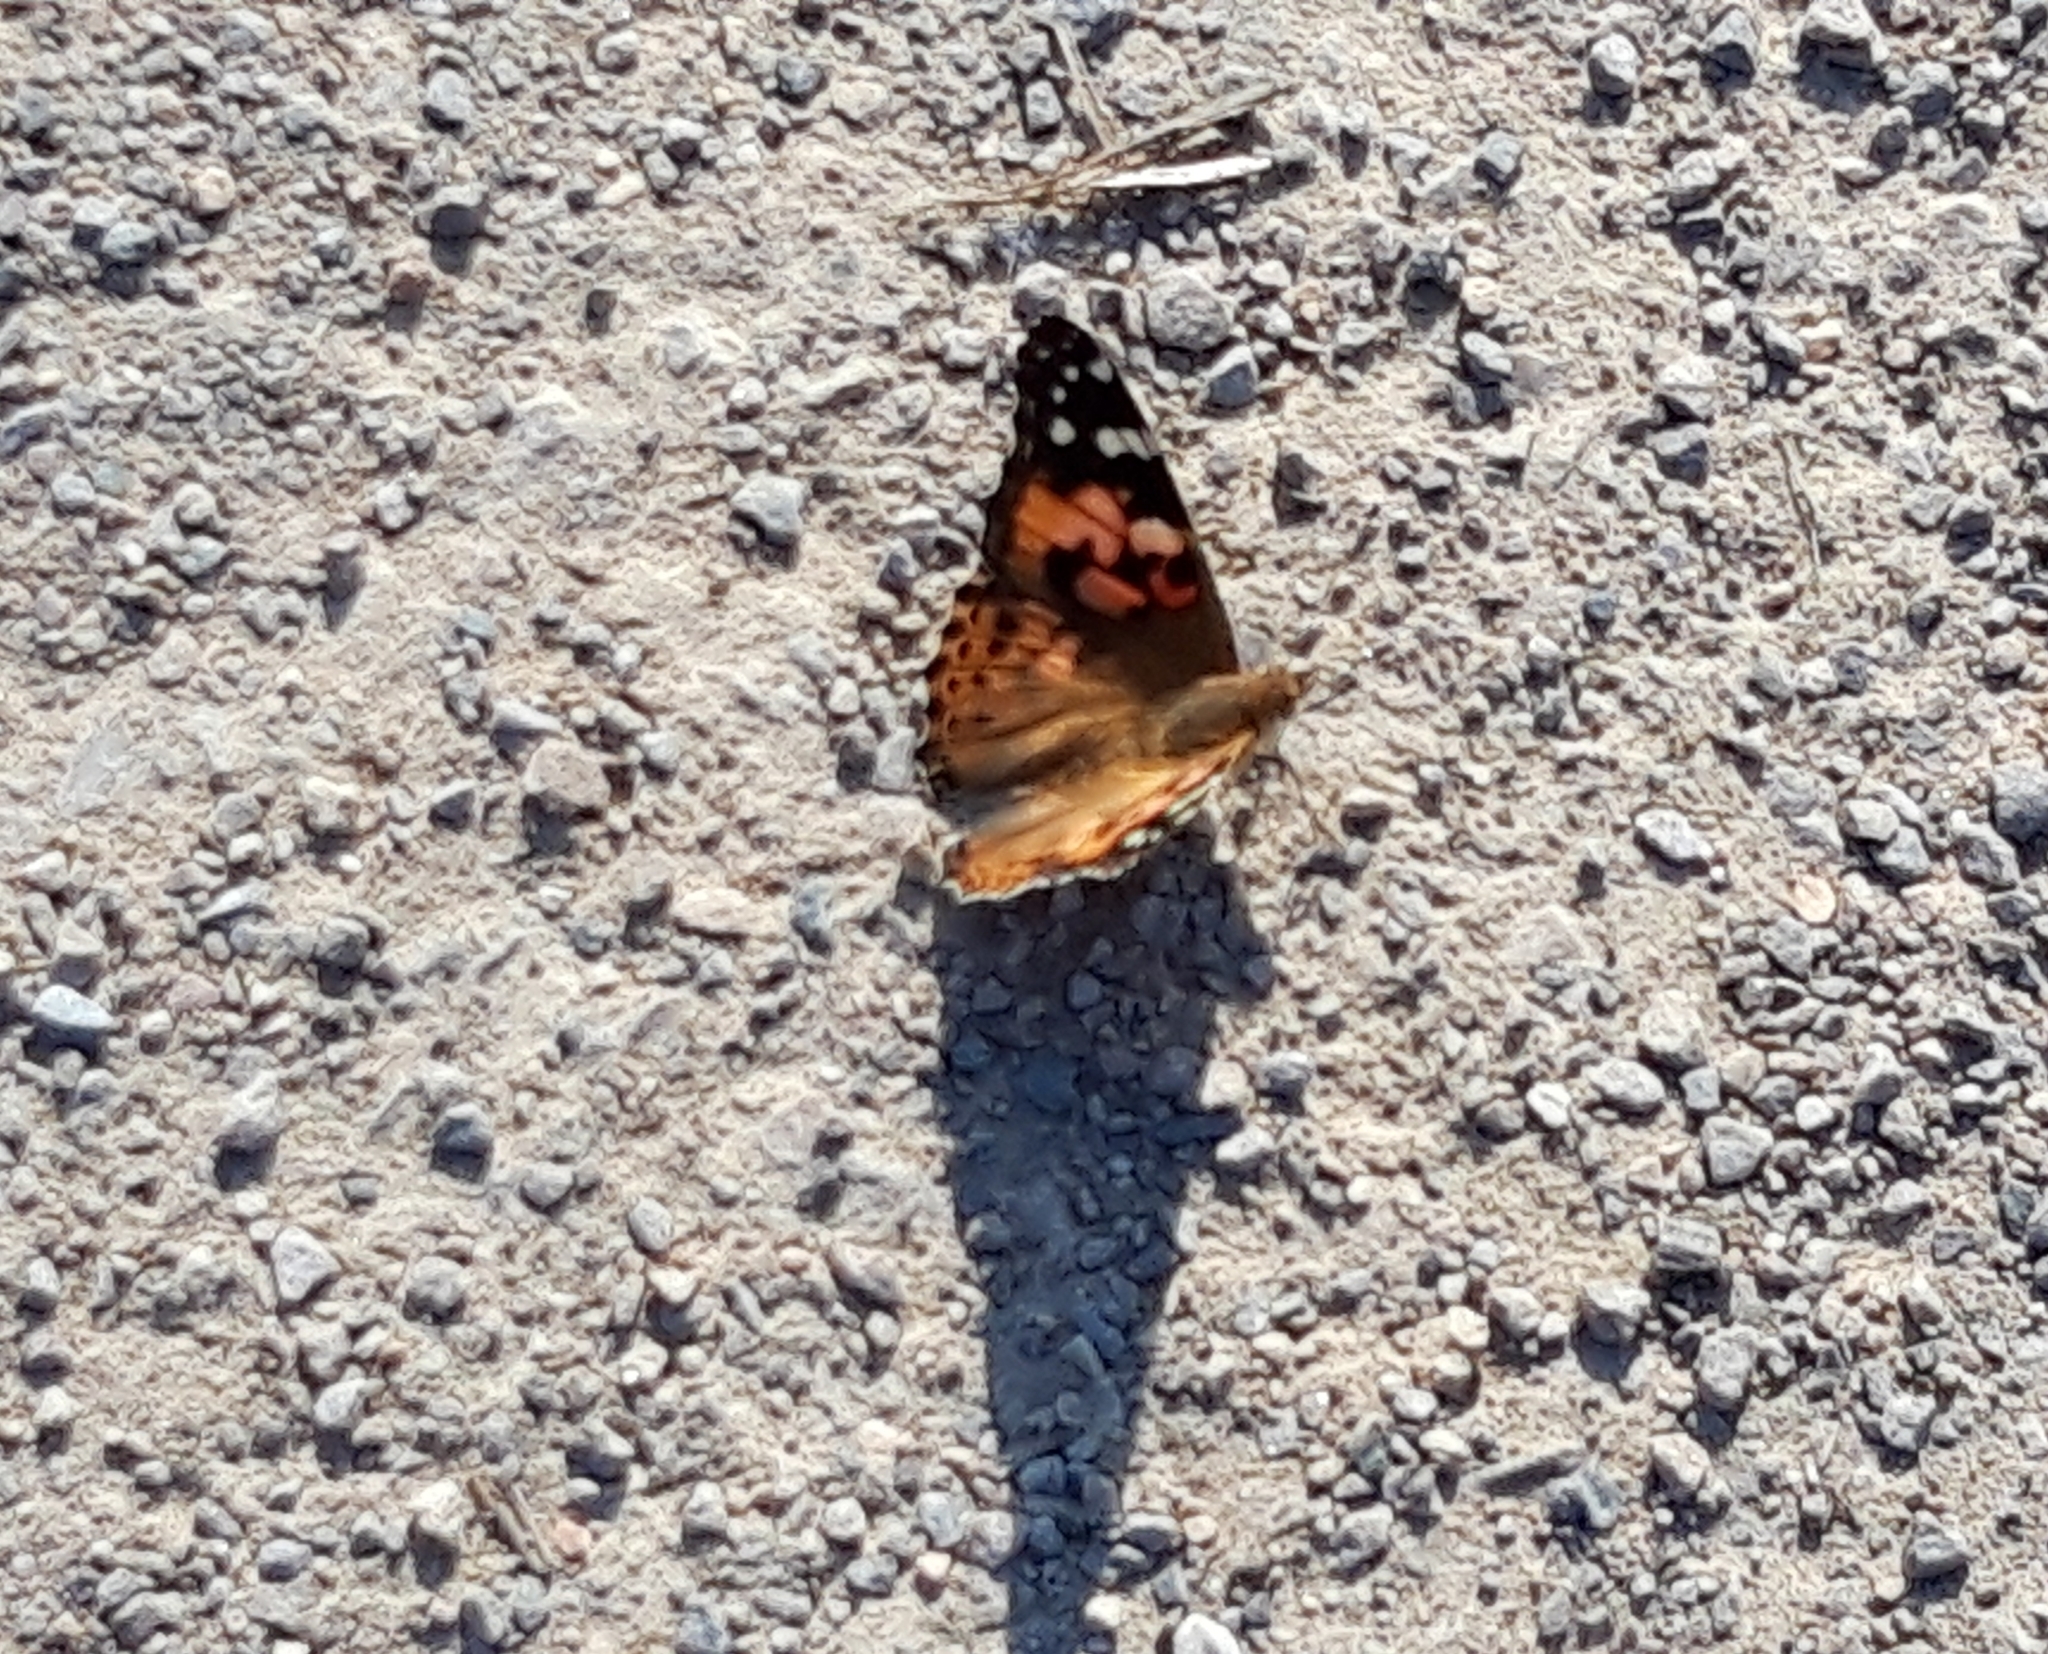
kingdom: Animalia
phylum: Arthropoda
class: Insecta
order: Lepidoptera
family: Nymphalidae
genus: Vanessa
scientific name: Vanessa cardui
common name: Painted lady
